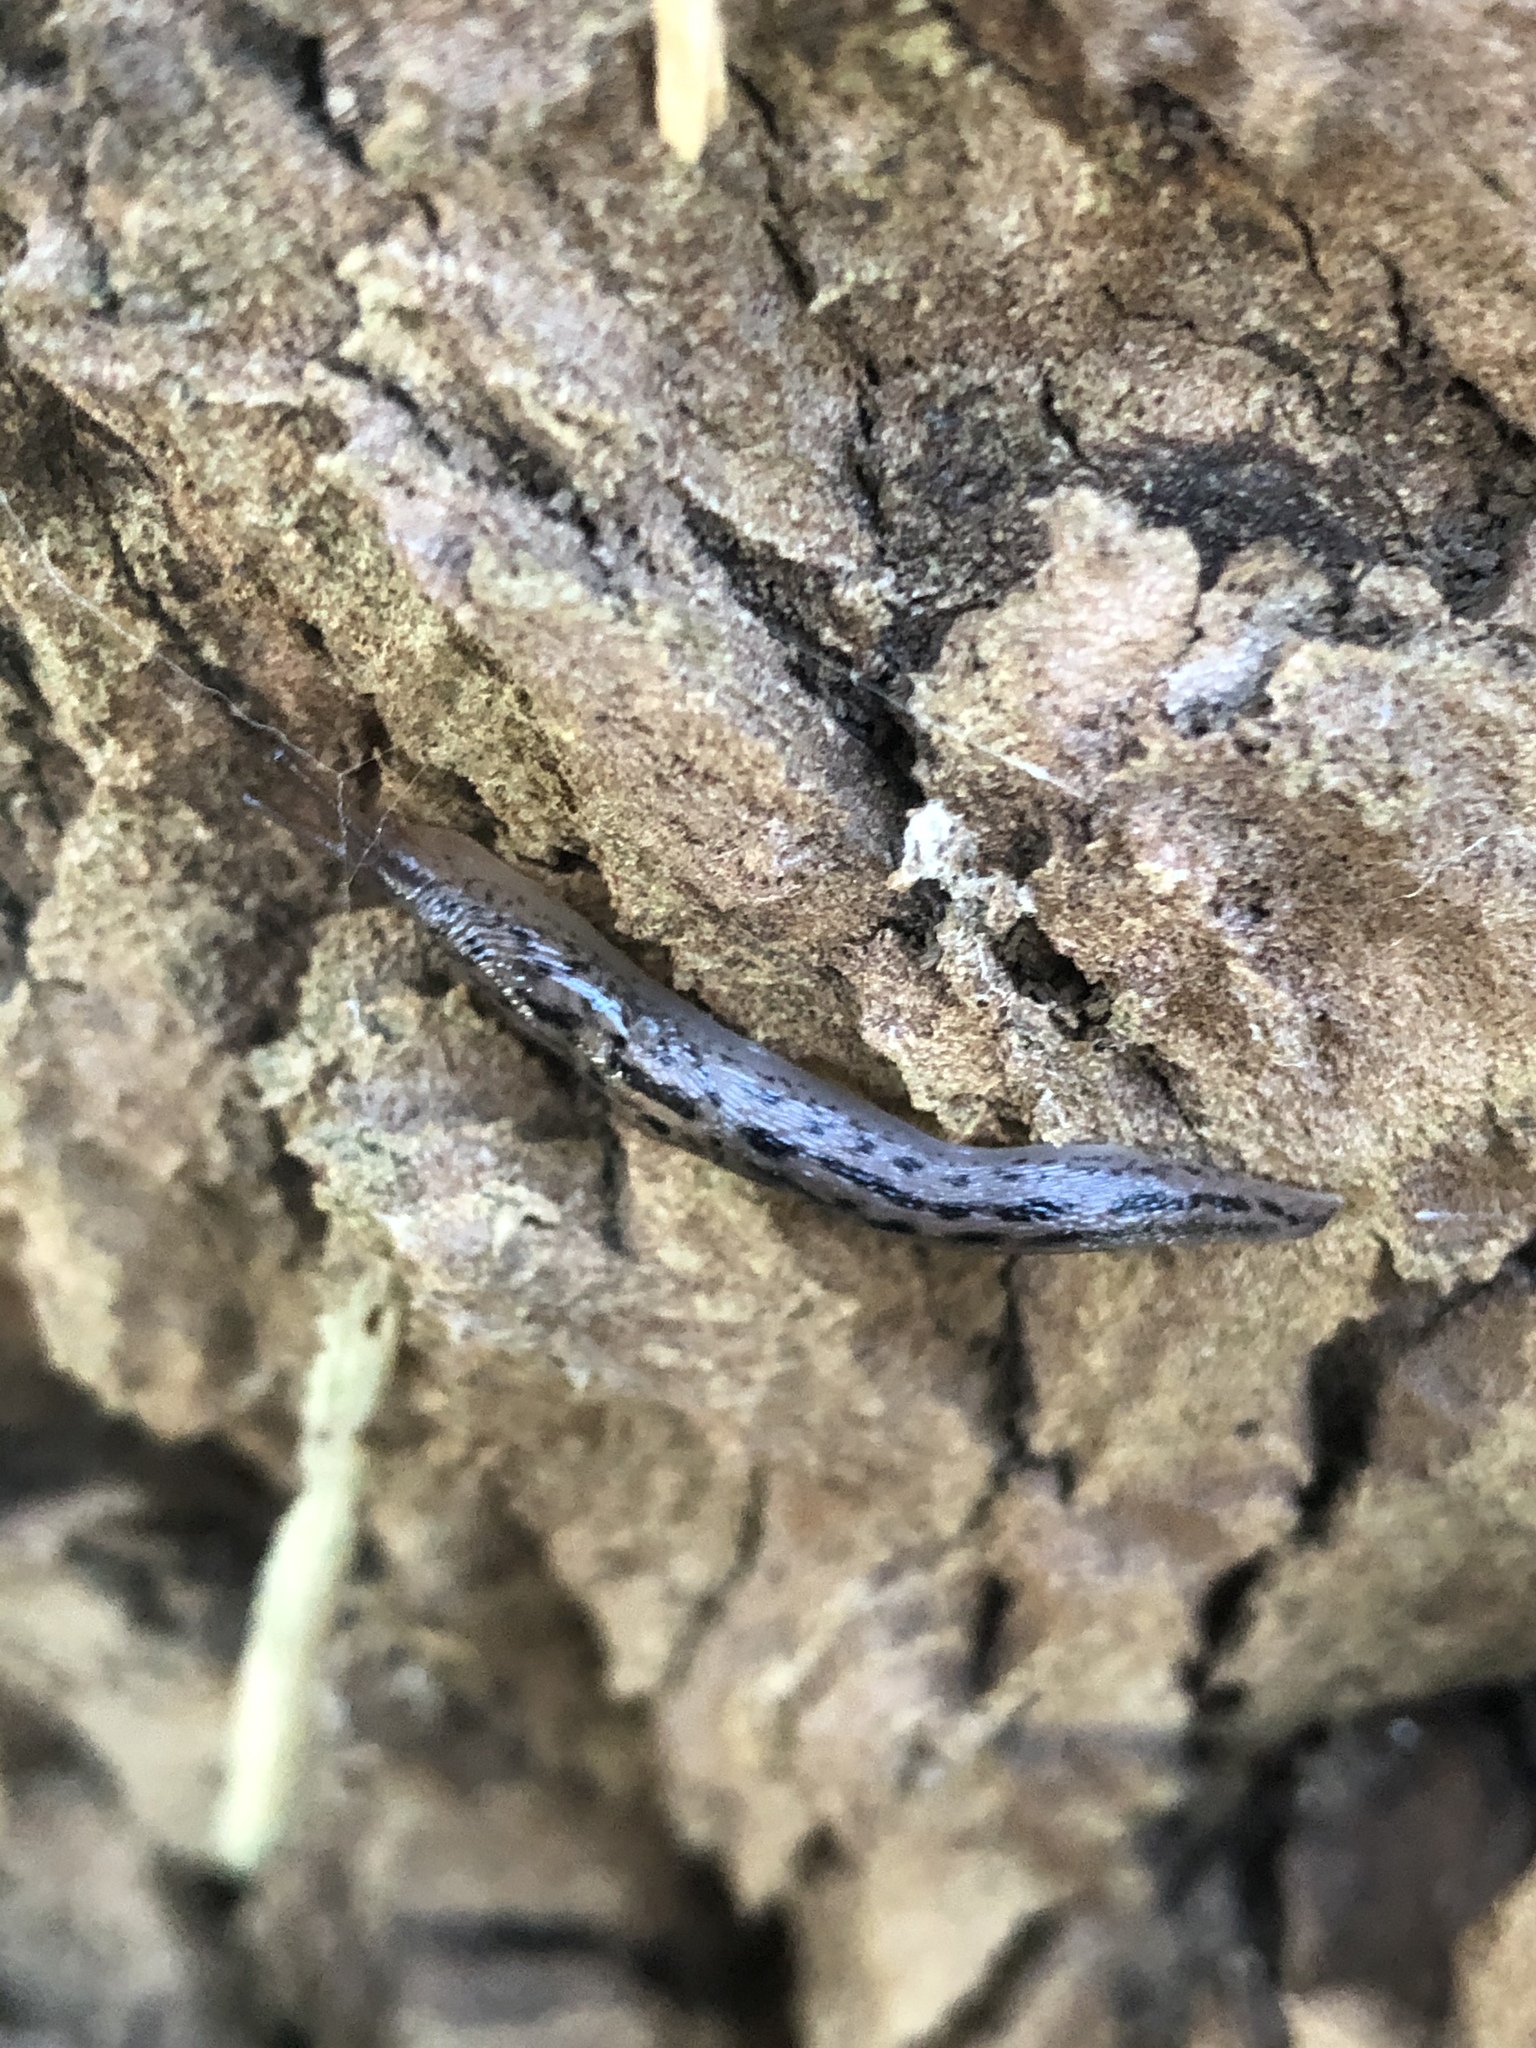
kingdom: Animalia
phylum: Mollusca
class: Gastropoda
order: Stylommatophora
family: Limacidae
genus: Limax
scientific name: Limax maximus
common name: Great grey slug
